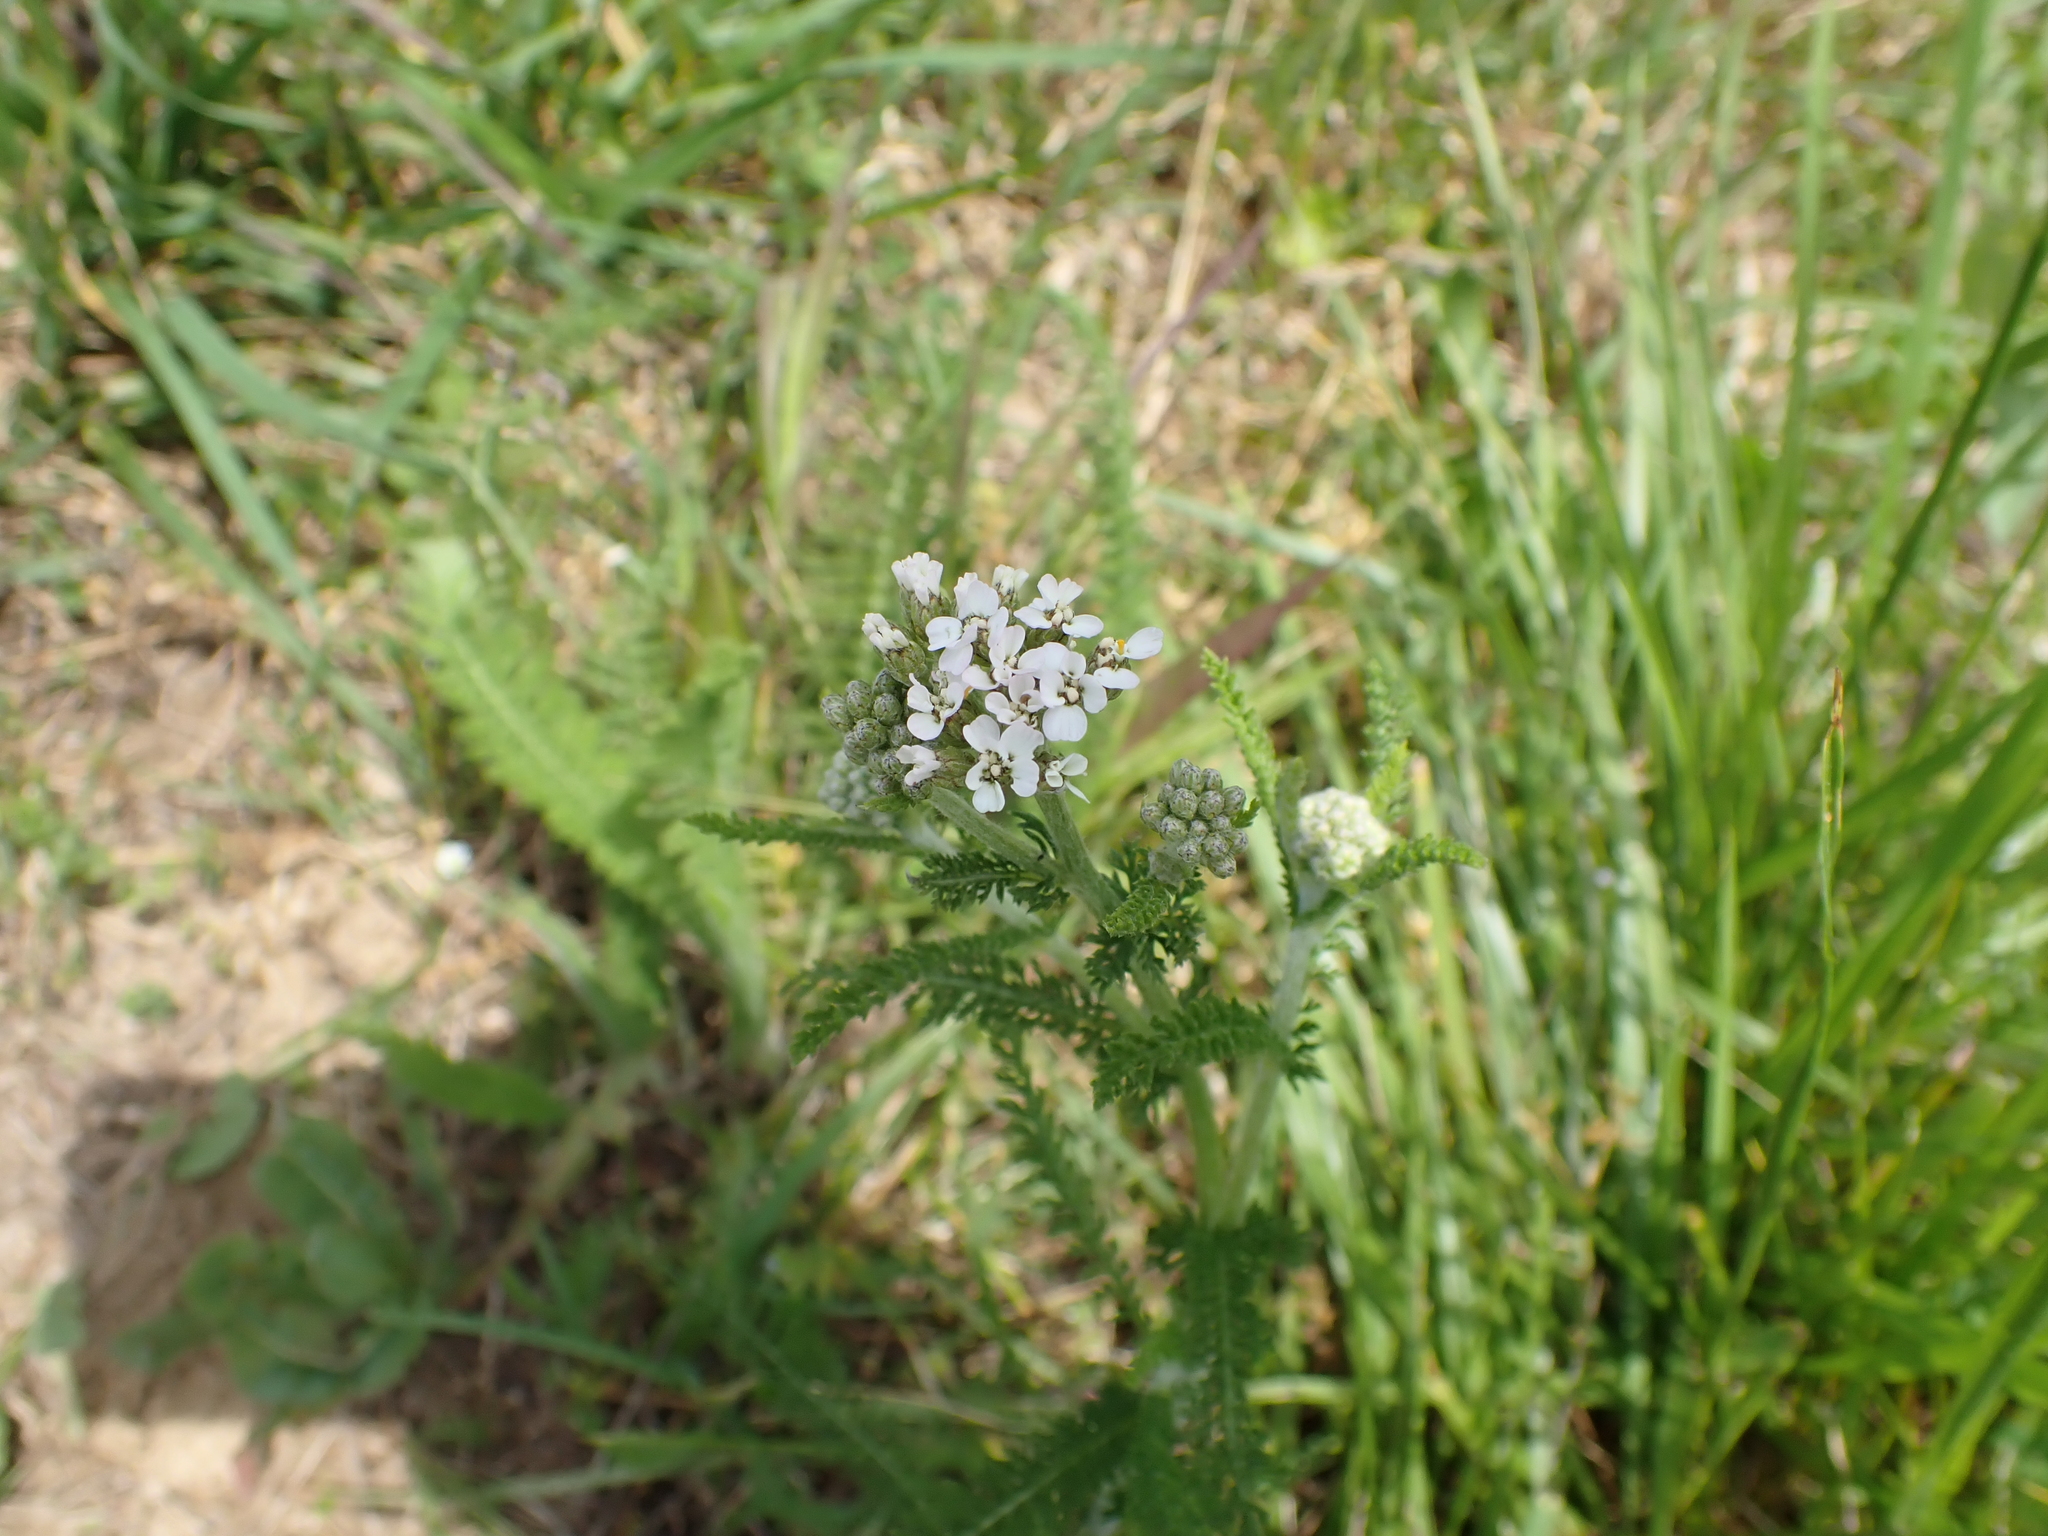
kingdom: Plantae
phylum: Tracheophyta
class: Magnoliopsida
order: Asterales
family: Asteraceae
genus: Achillea
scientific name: Achillea millefolium
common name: Yarrow
